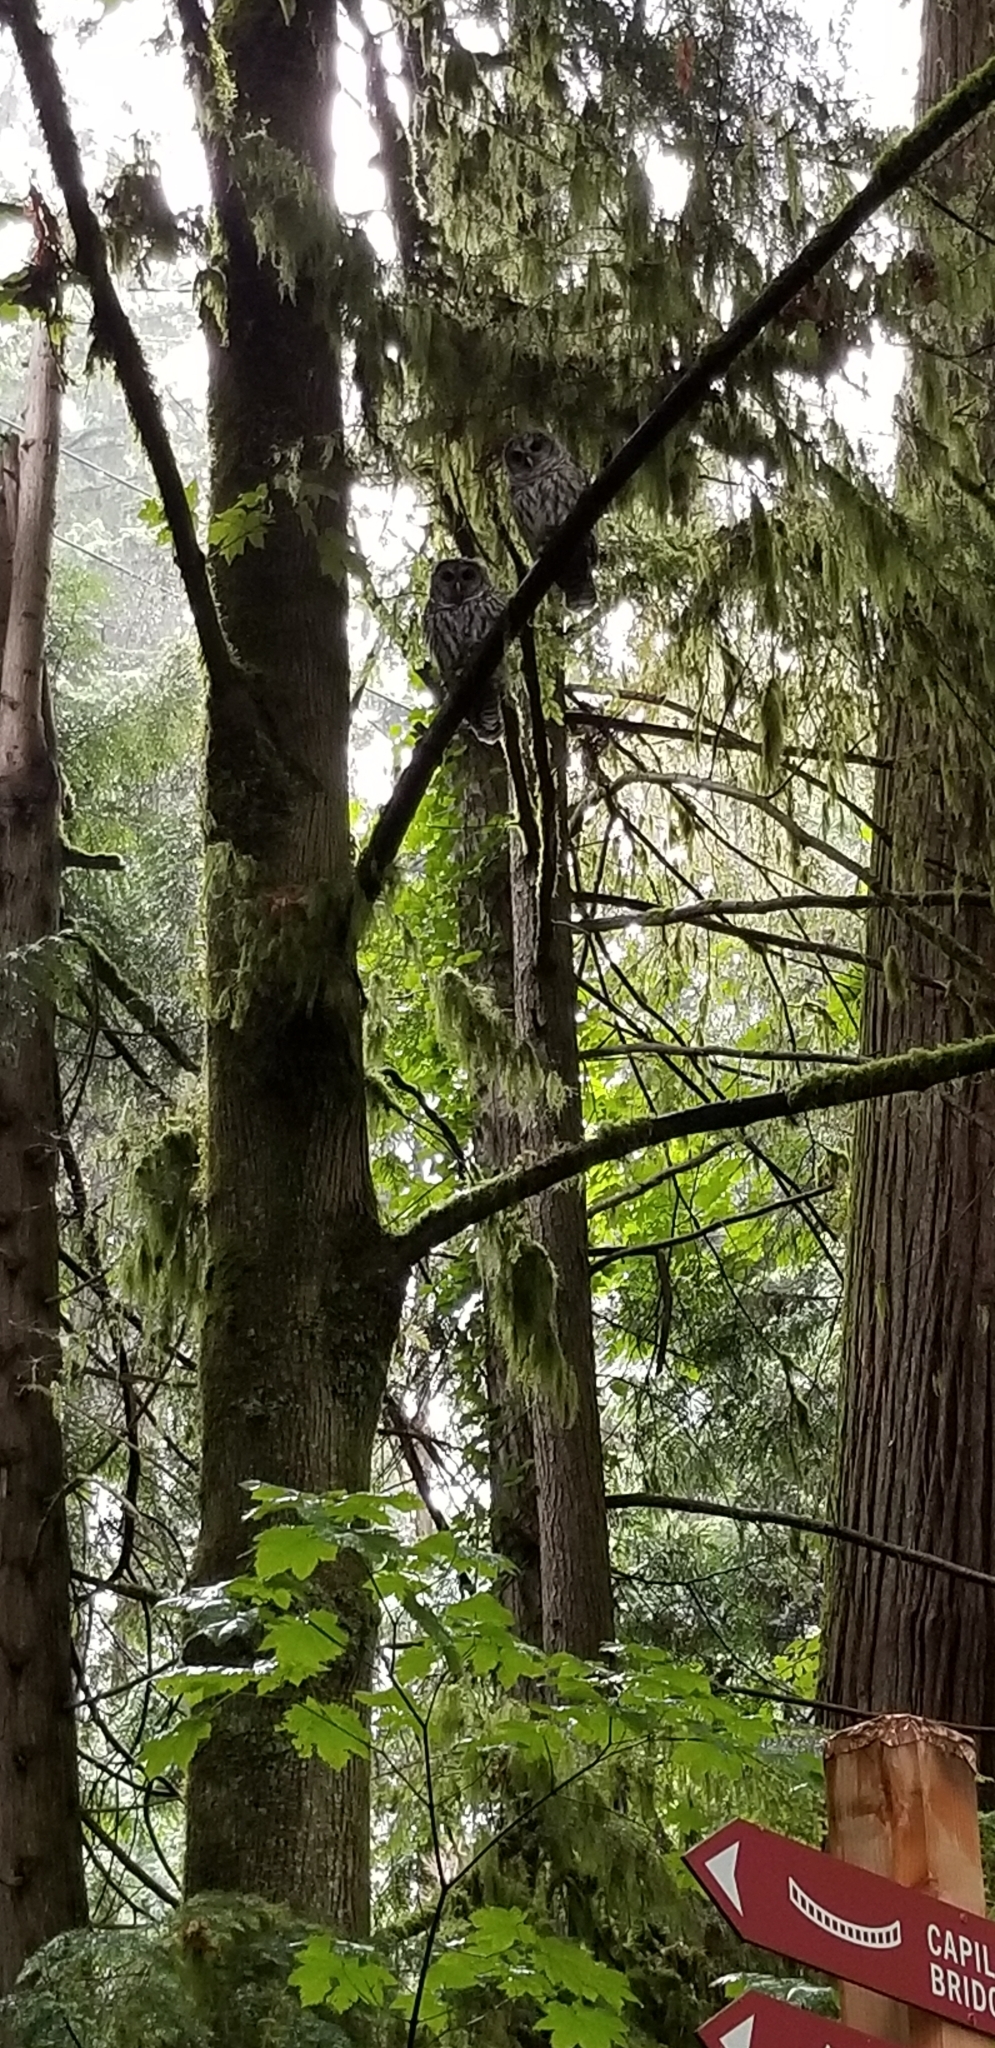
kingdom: Animalia
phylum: Chordata
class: Aves
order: Strigiformes
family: Strigidae
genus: Strix
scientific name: Strix varia
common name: Barred owl
